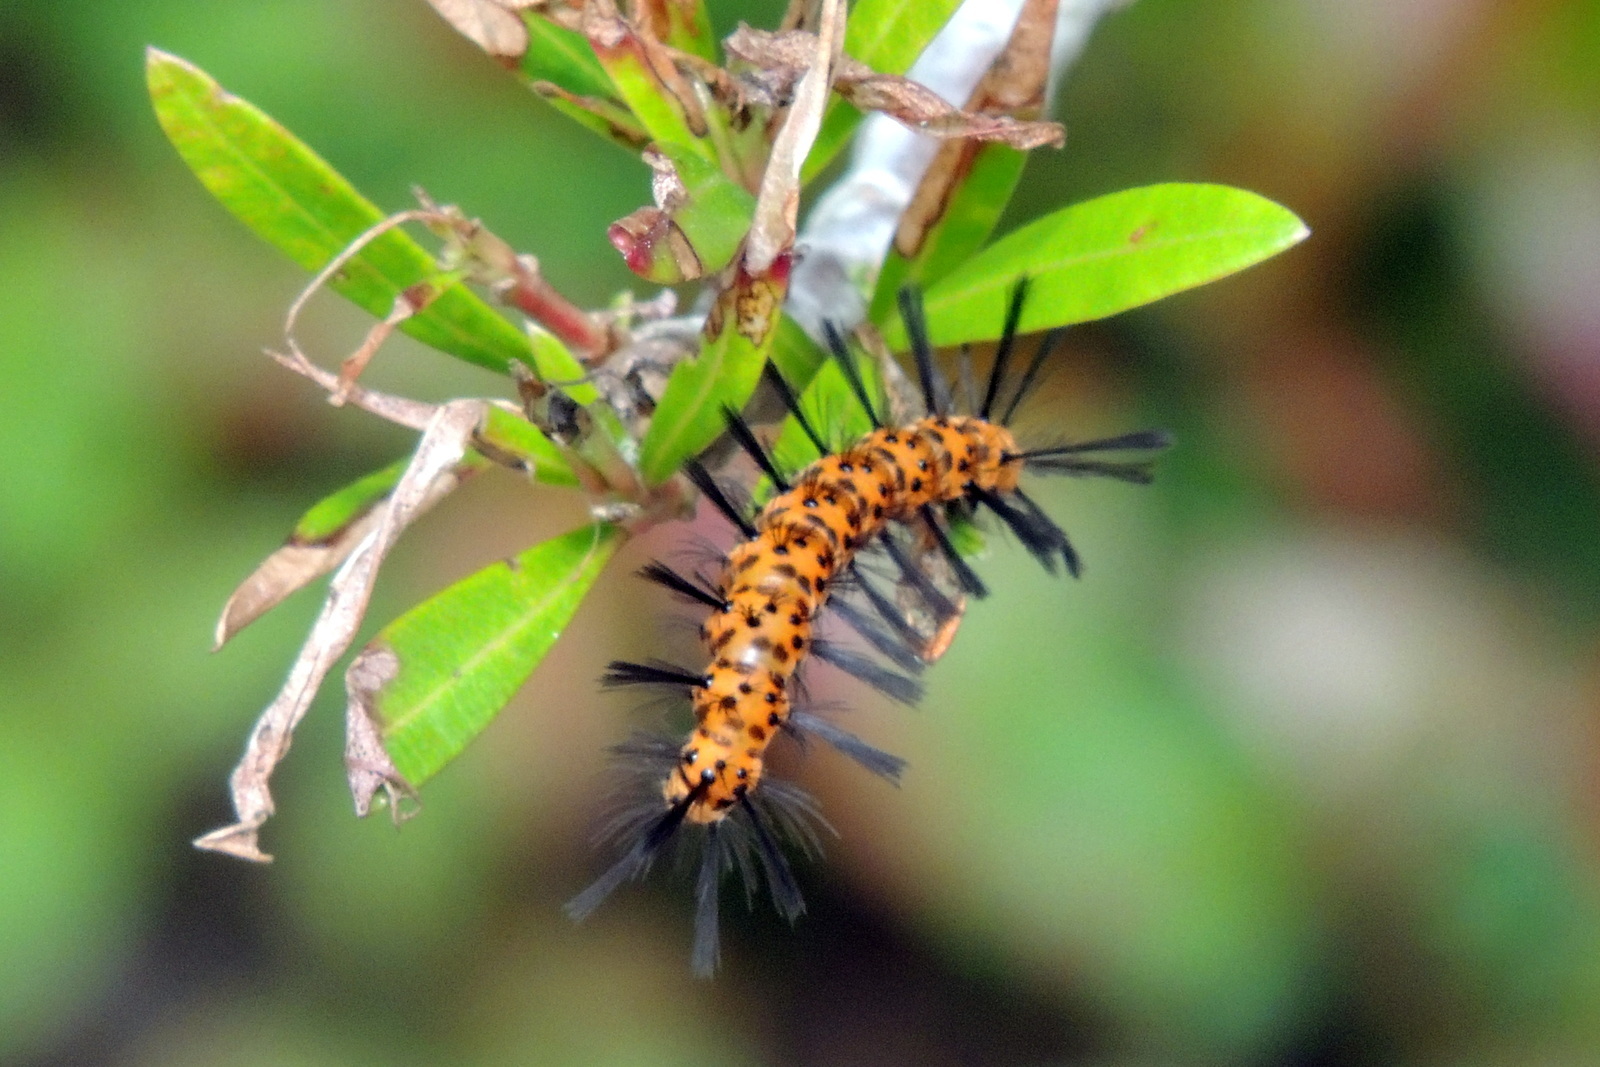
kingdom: Animalia
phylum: Arthropoda
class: Insecta
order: Lepidoptera
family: Erebidae
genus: Syntomeida
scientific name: Syntomeida epilais
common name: Polka-dot wasp moth
